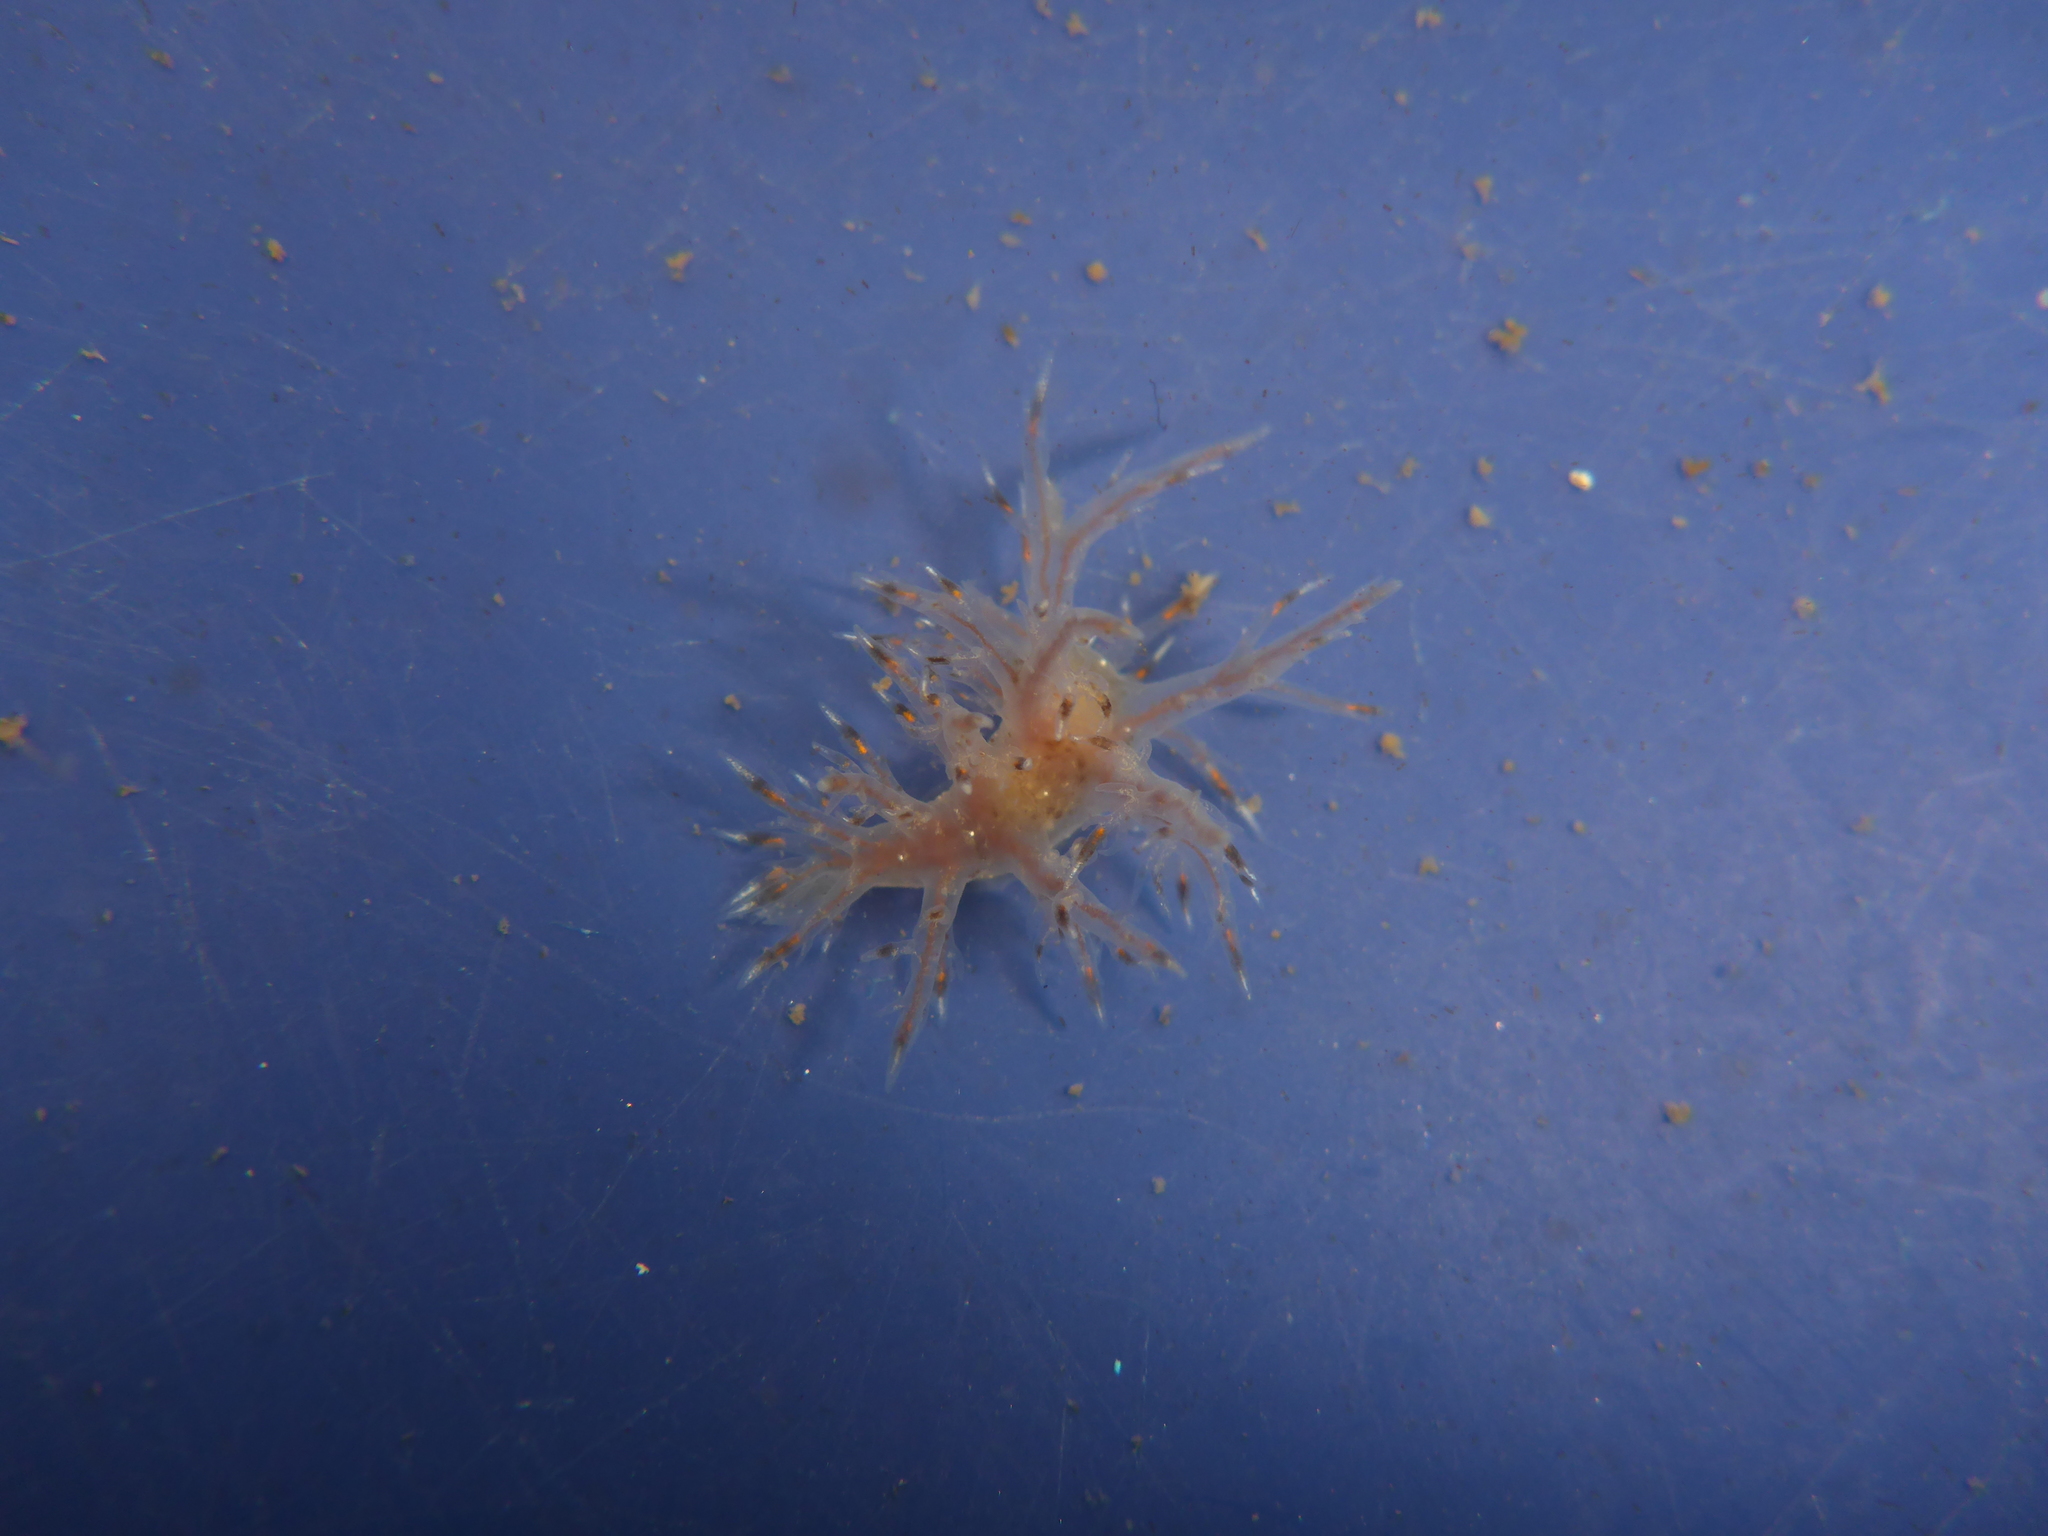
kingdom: Animalia
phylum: Mollusca
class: Gastropoda
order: Nudibranchia
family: Dendronotidae
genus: Dendronotus
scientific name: Dendronotus iris
